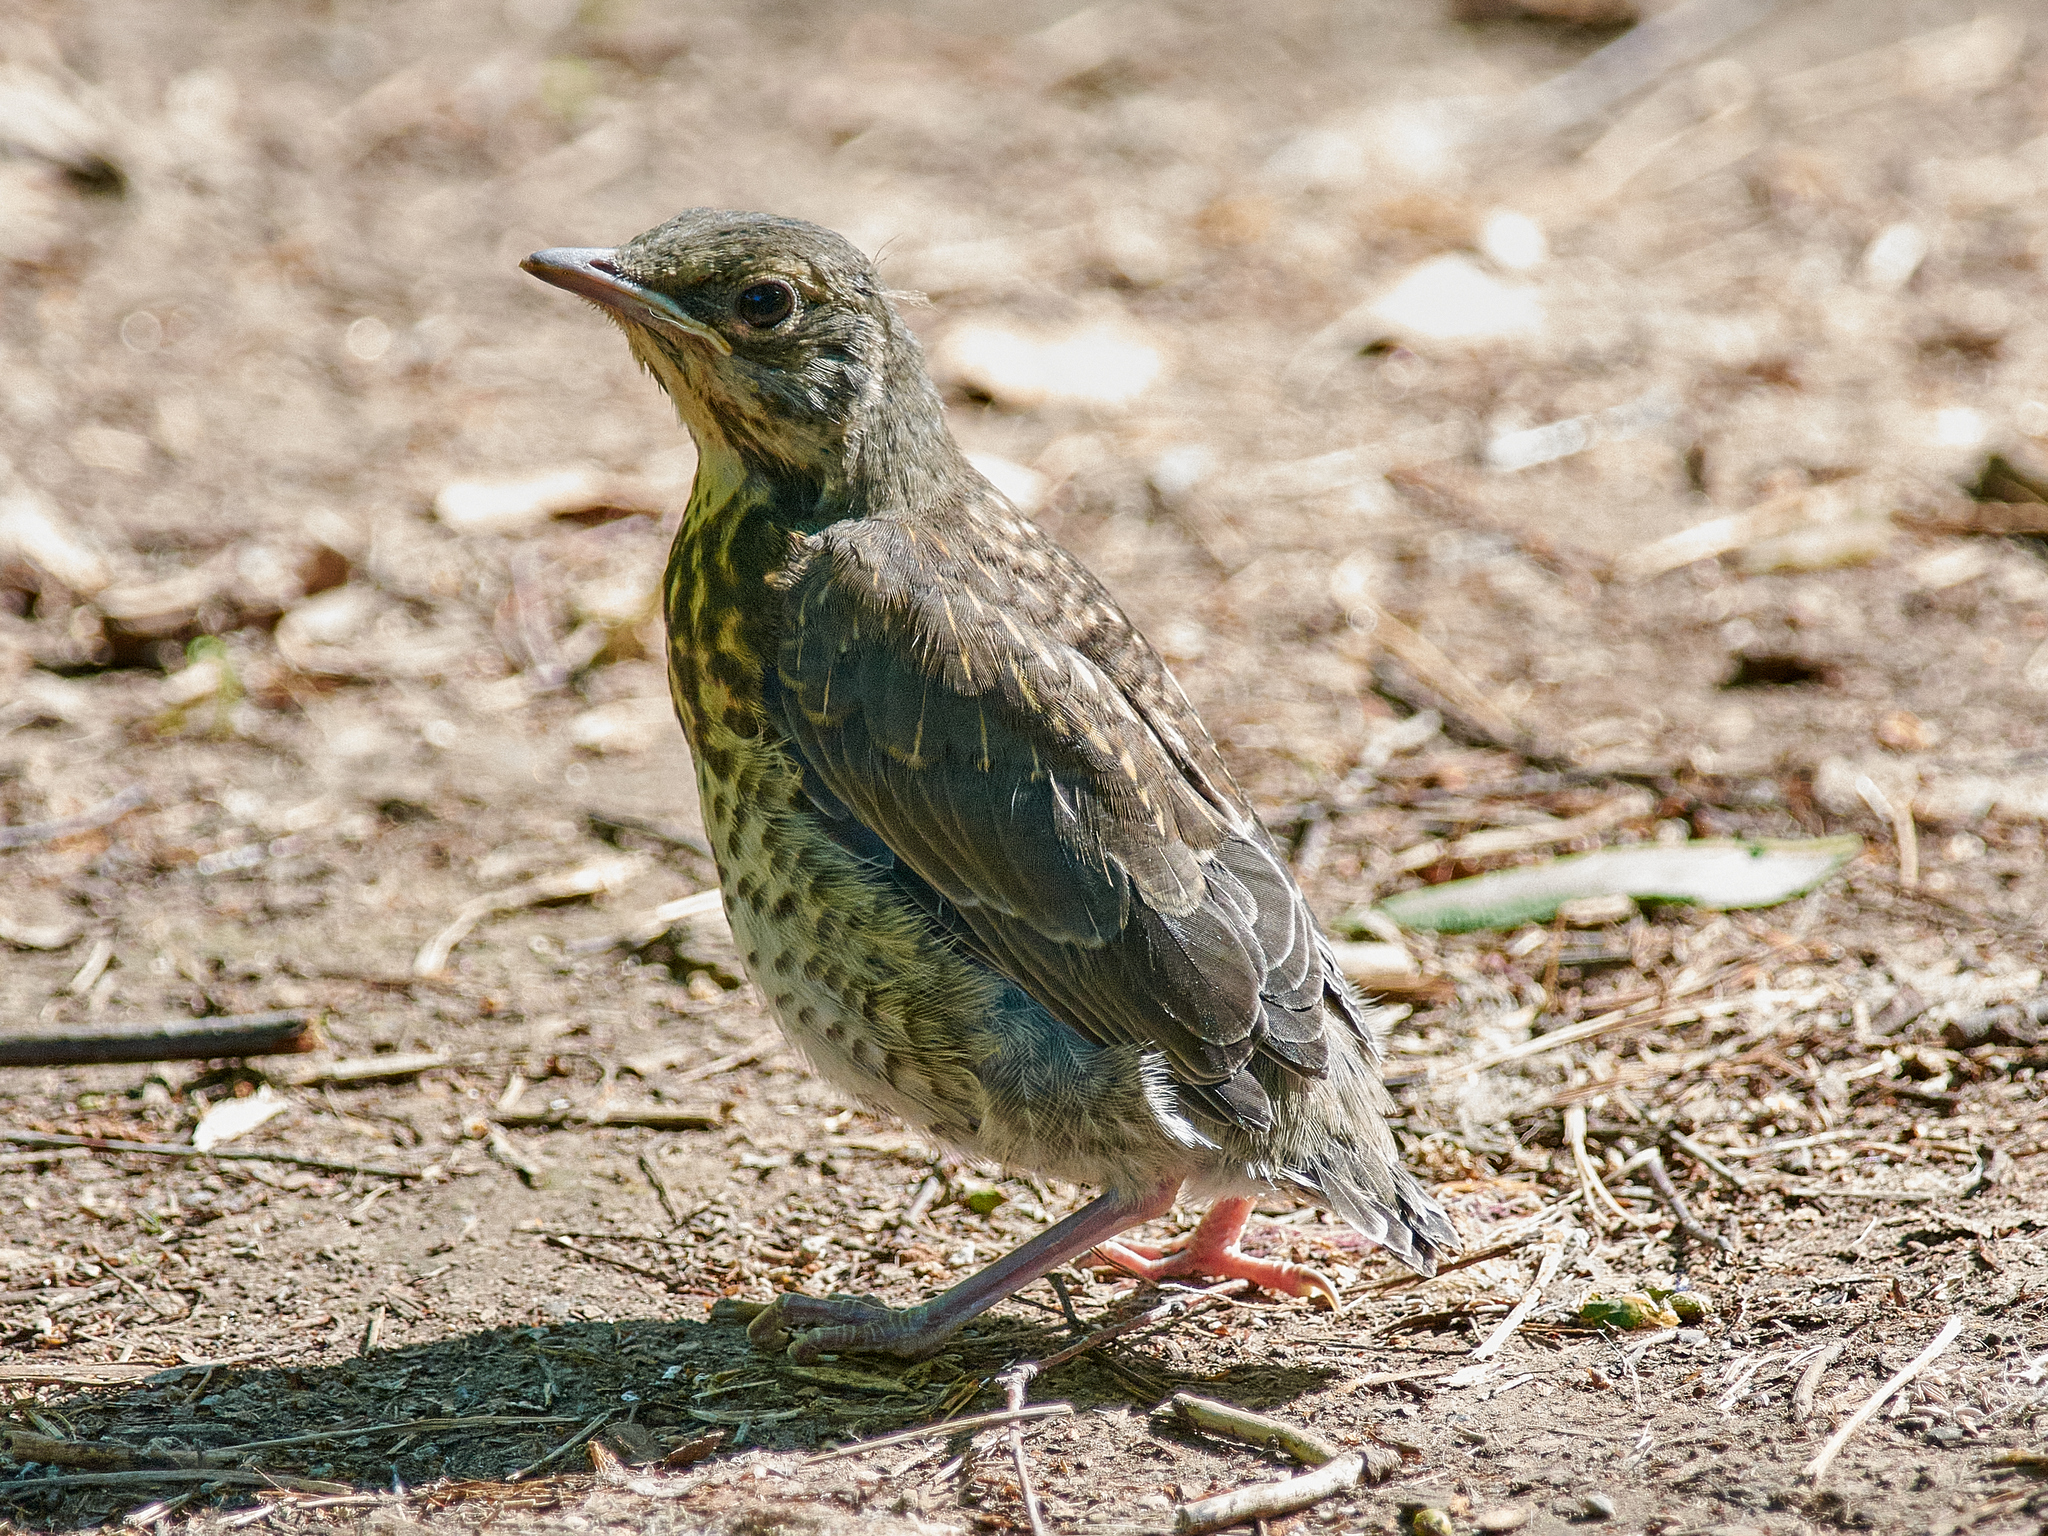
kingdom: Animalia
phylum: Chordata
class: Aves
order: Passeriformes
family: Turdidae
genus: Turdus
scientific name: Turdus pilaris
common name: Fieldfare
